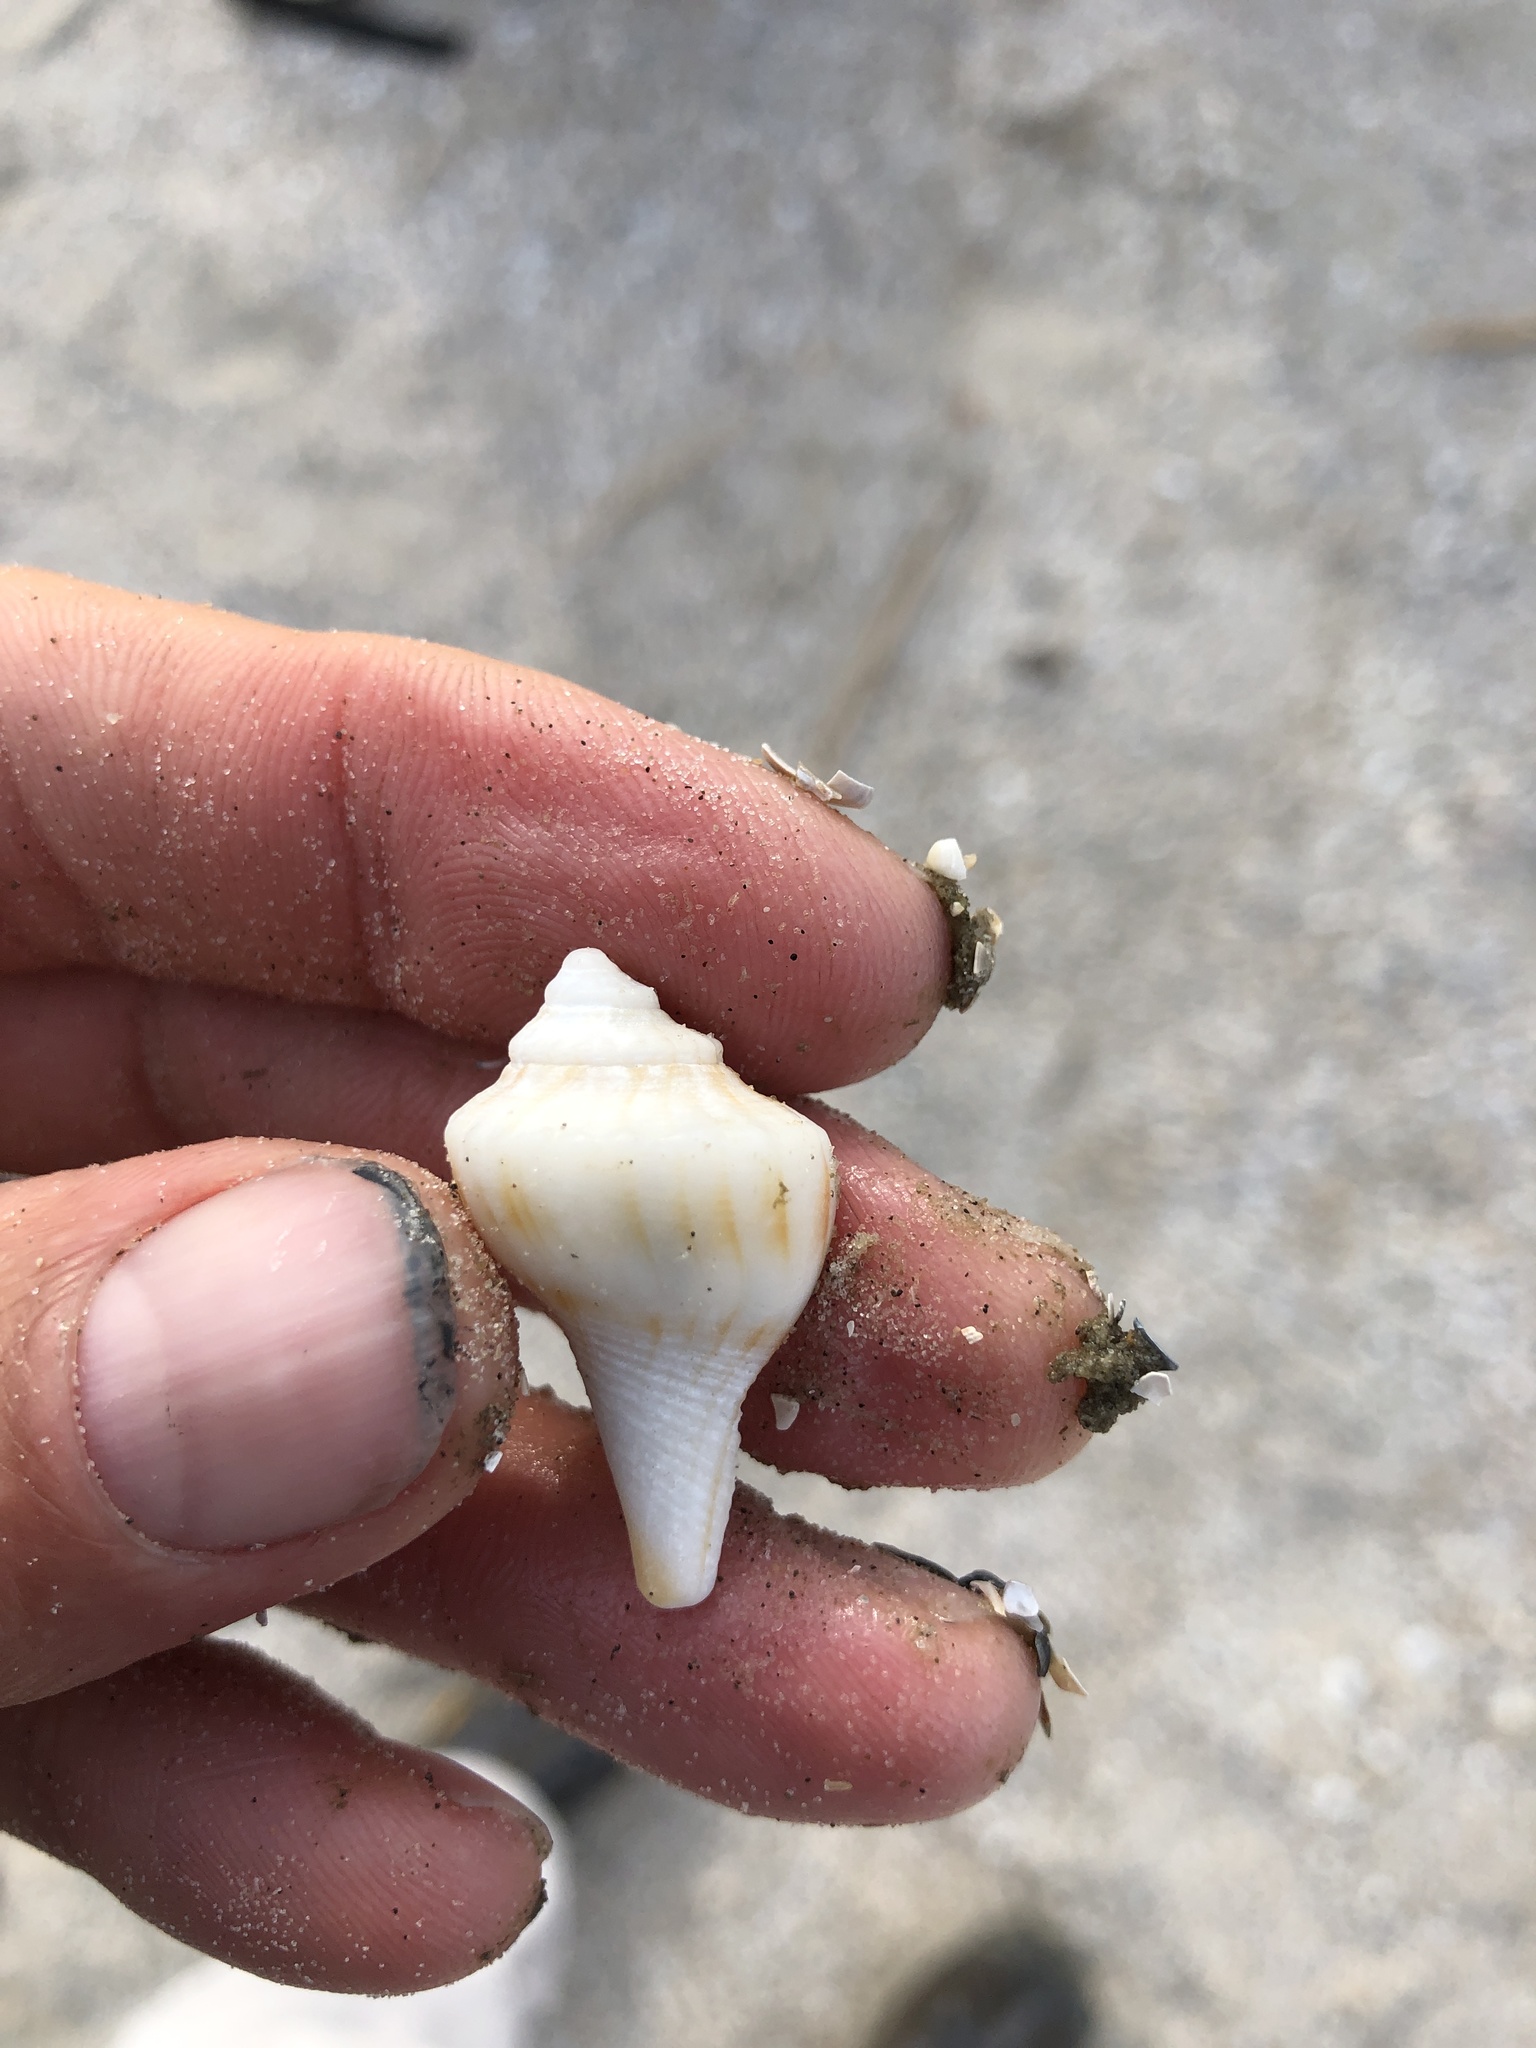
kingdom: Animalia
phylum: Mollusca
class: Gastropoda
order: Neogastropoda
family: Busyconidae
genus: Sinistrofulgur
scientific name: Sinistrofulgur pulleyi
